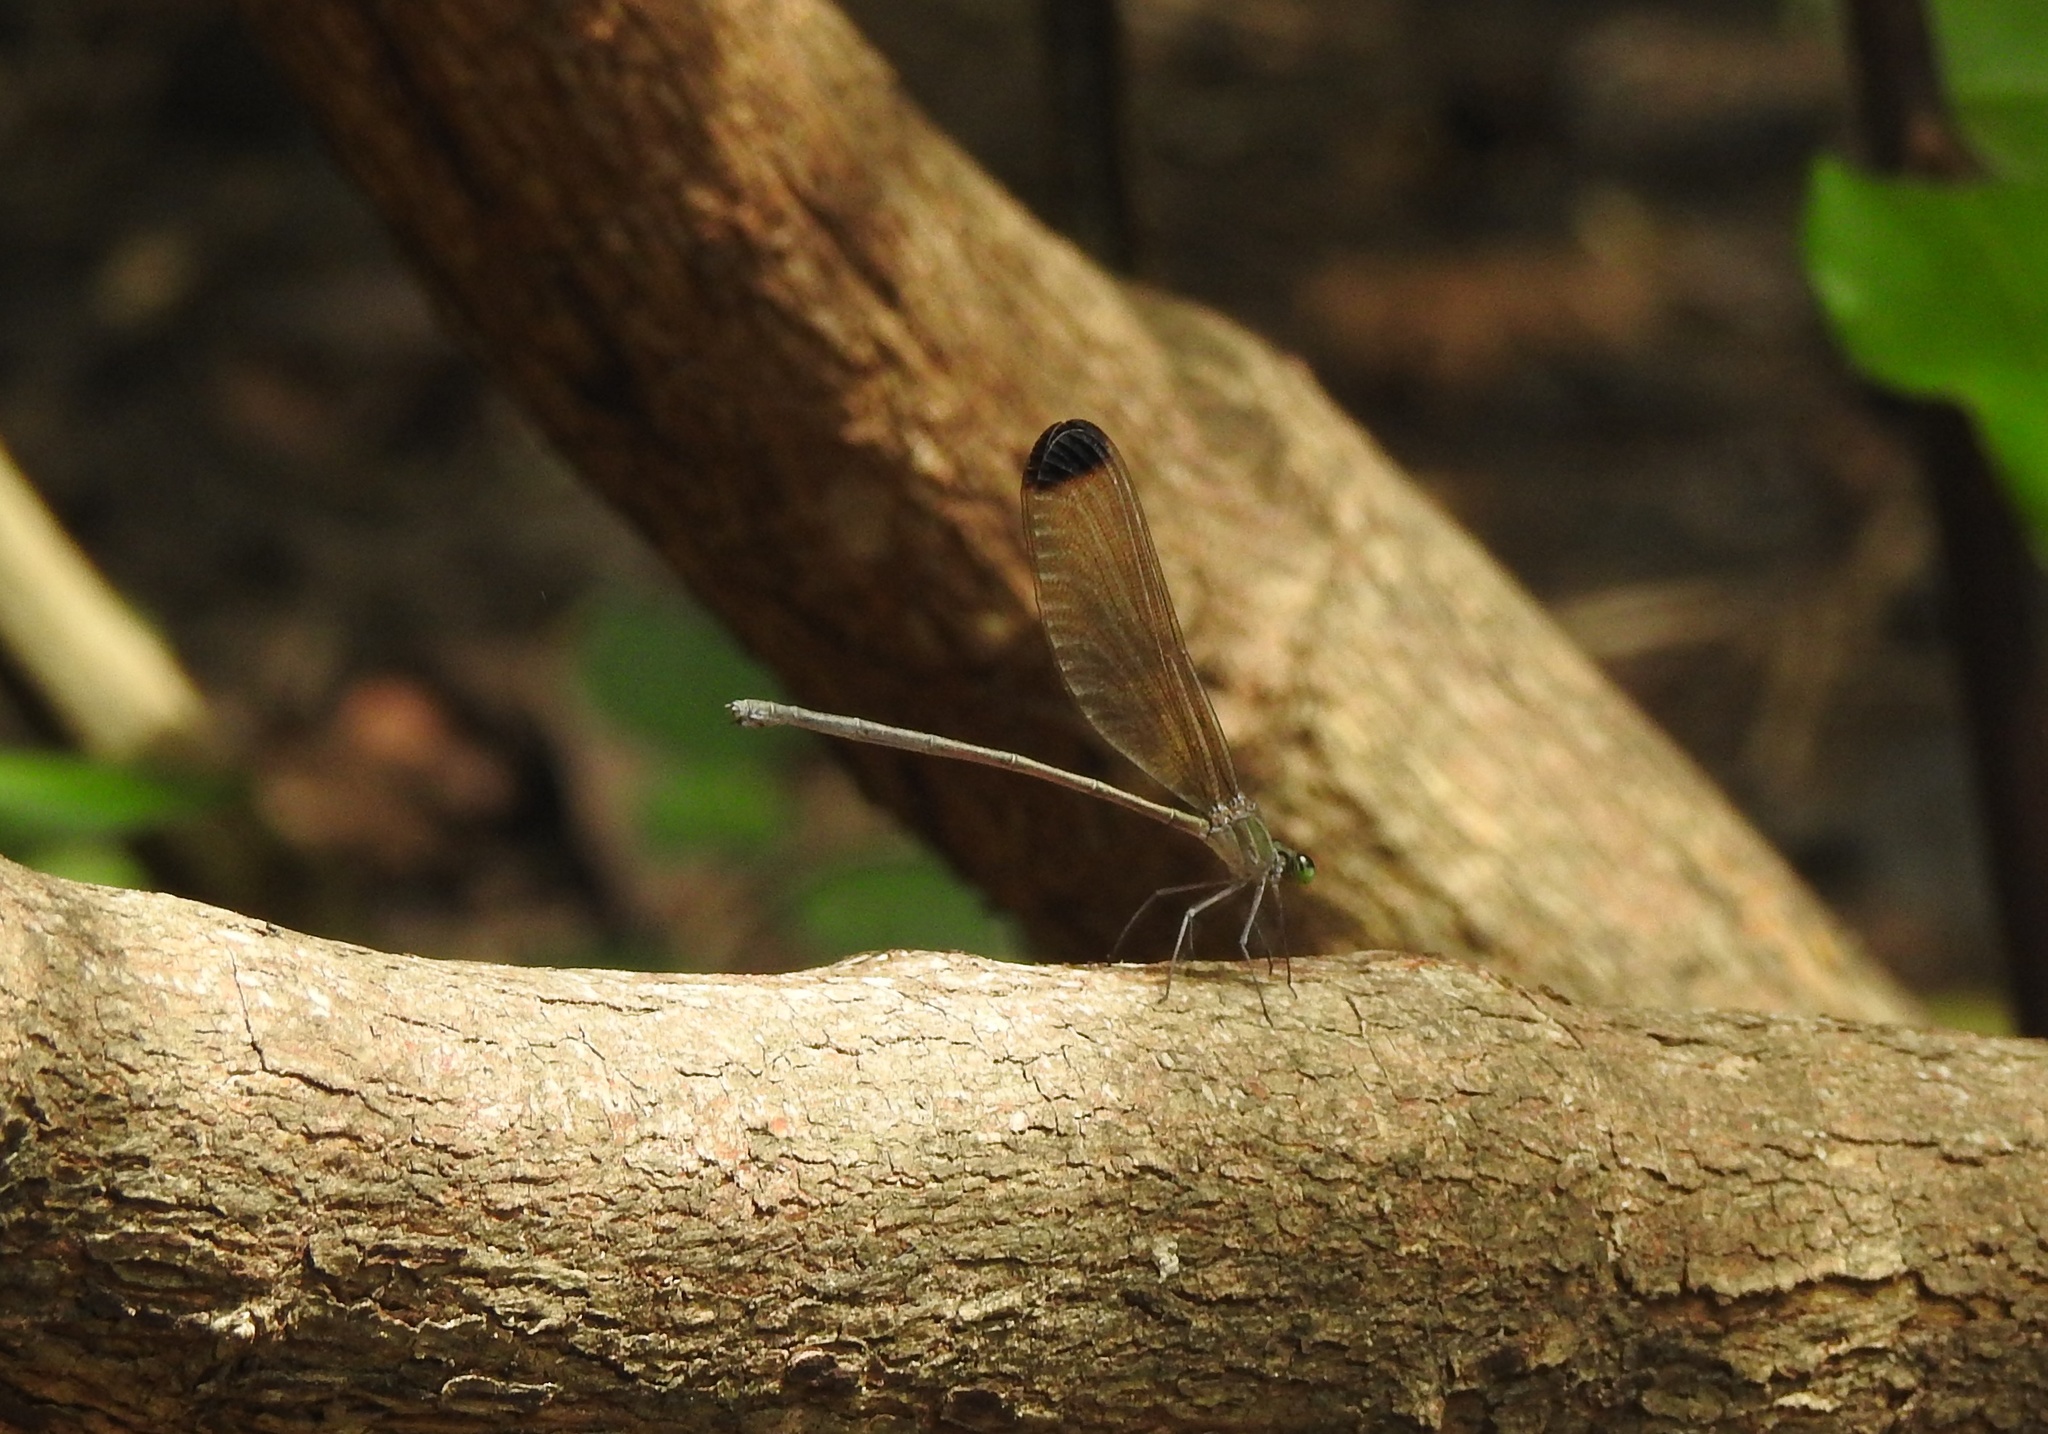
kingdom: Animalia
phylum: Arthropoda
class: Insecta
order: Odonata
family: Calopterygidae
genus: Vestalis
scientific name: Vestalis apicalis
